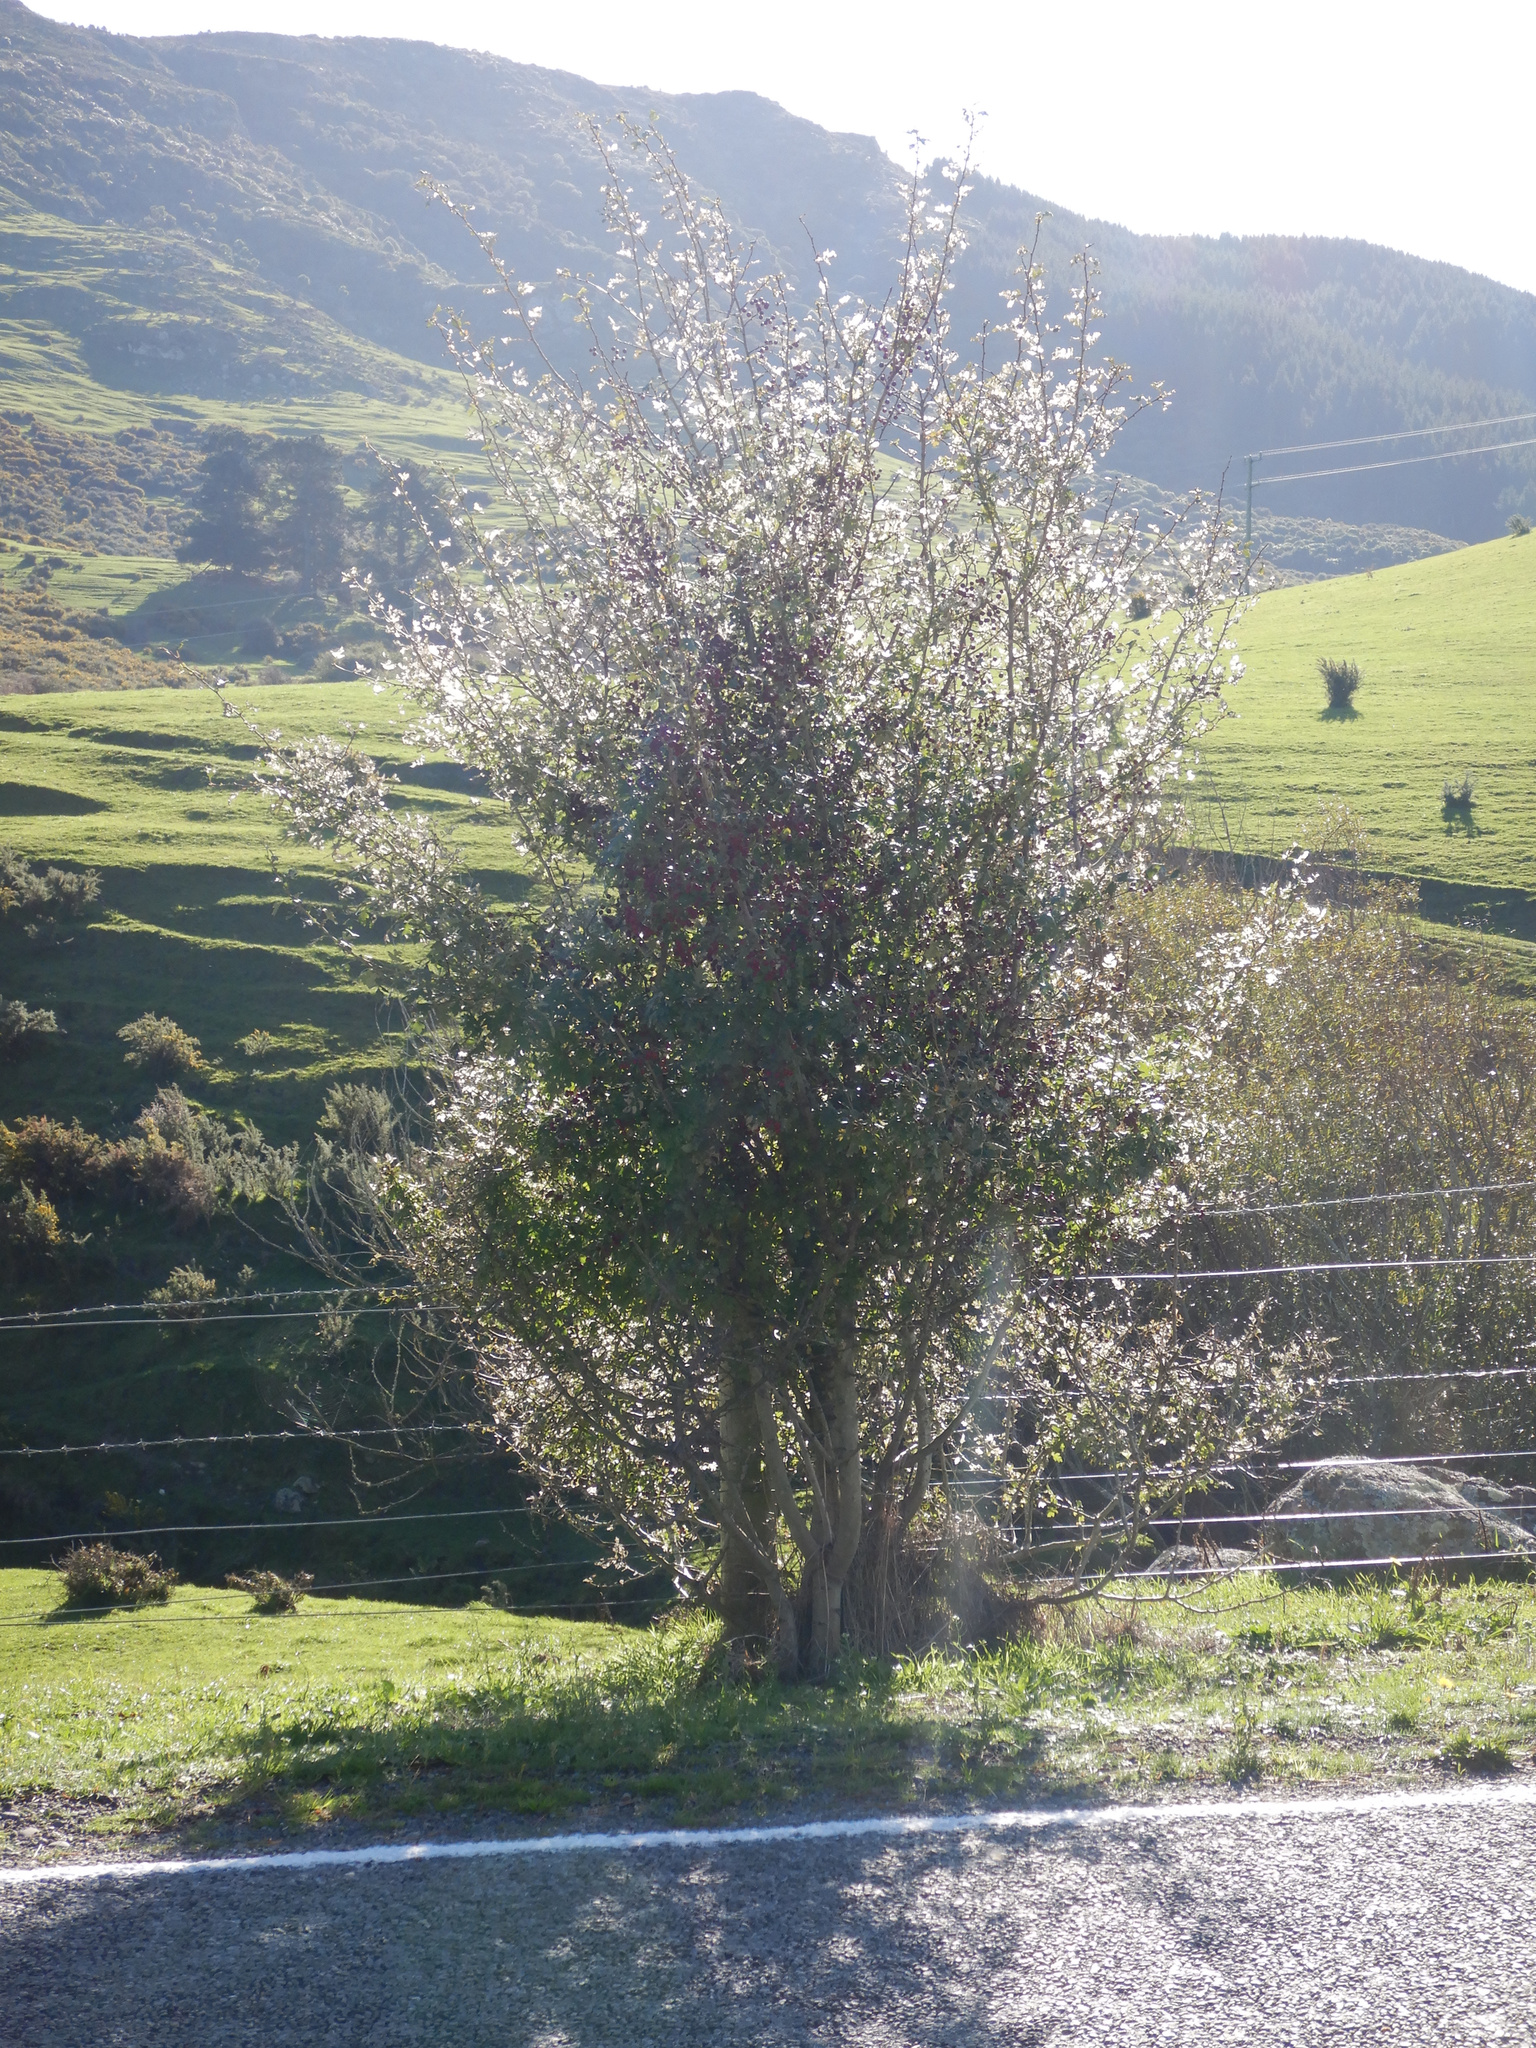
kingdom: Plantae
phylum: Tracheophyta
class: Magnoliopsida
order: Rosales
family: Rosaceae
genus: Crataegus
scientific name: Crataegus monogyna
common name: Hawthorn
